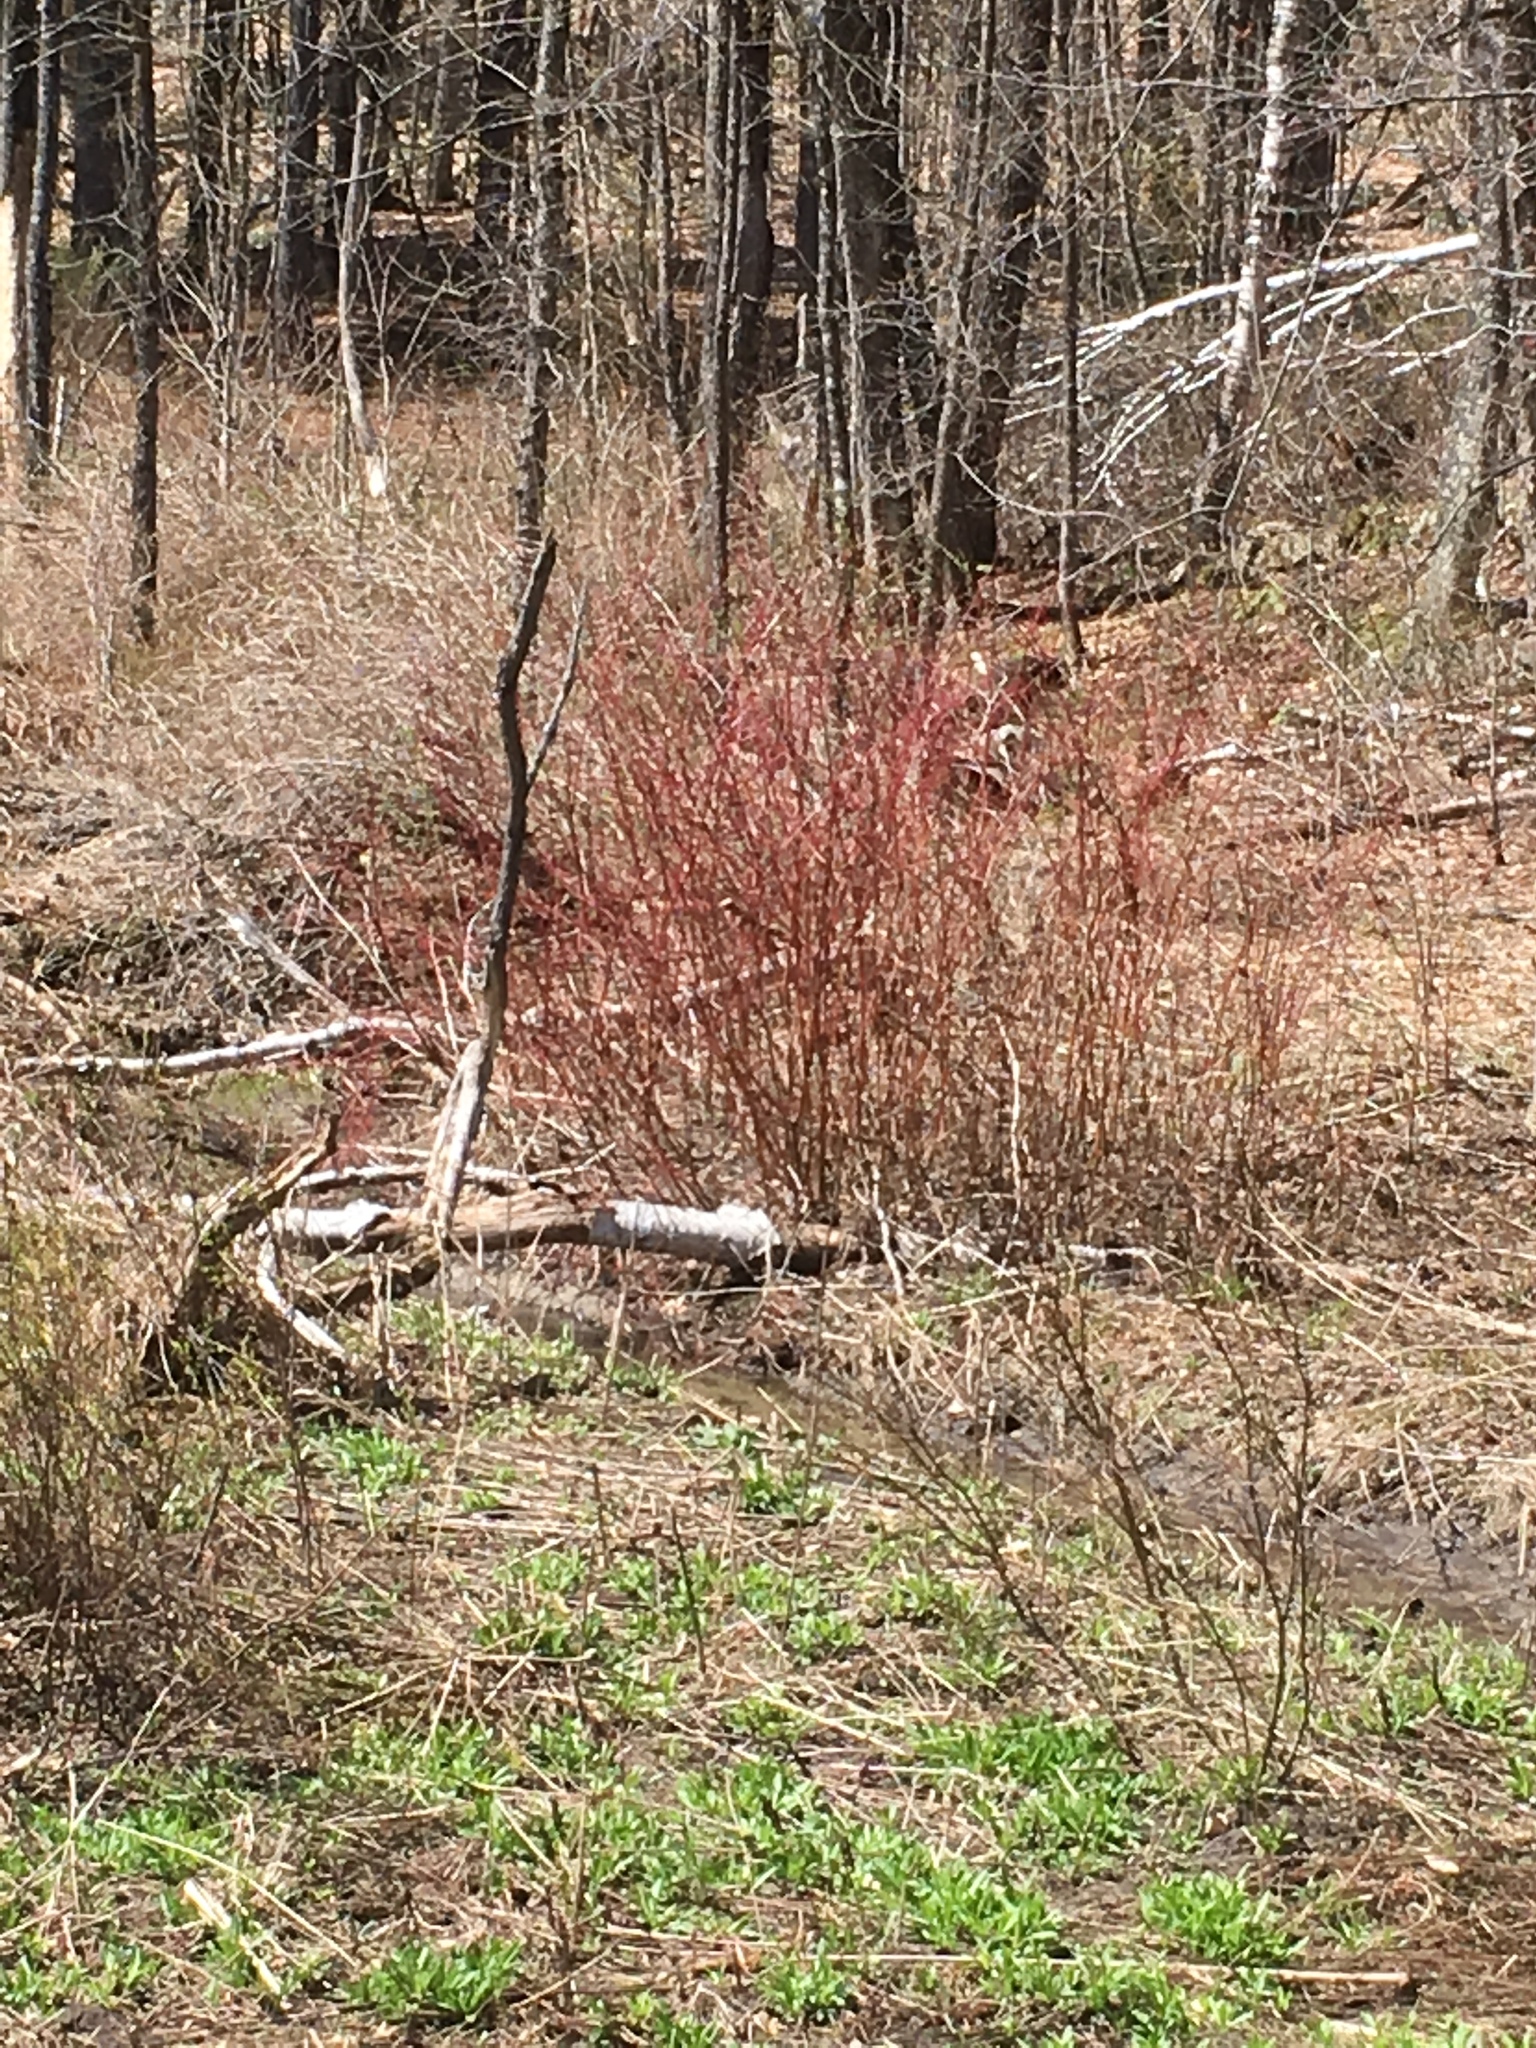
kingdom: Plantae
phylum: Tracheophyta
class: Magnoliopsida
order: Cornales
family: Cornaceae
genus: Cornus
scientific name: Cornus sericea
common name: Red-osier dogwood
